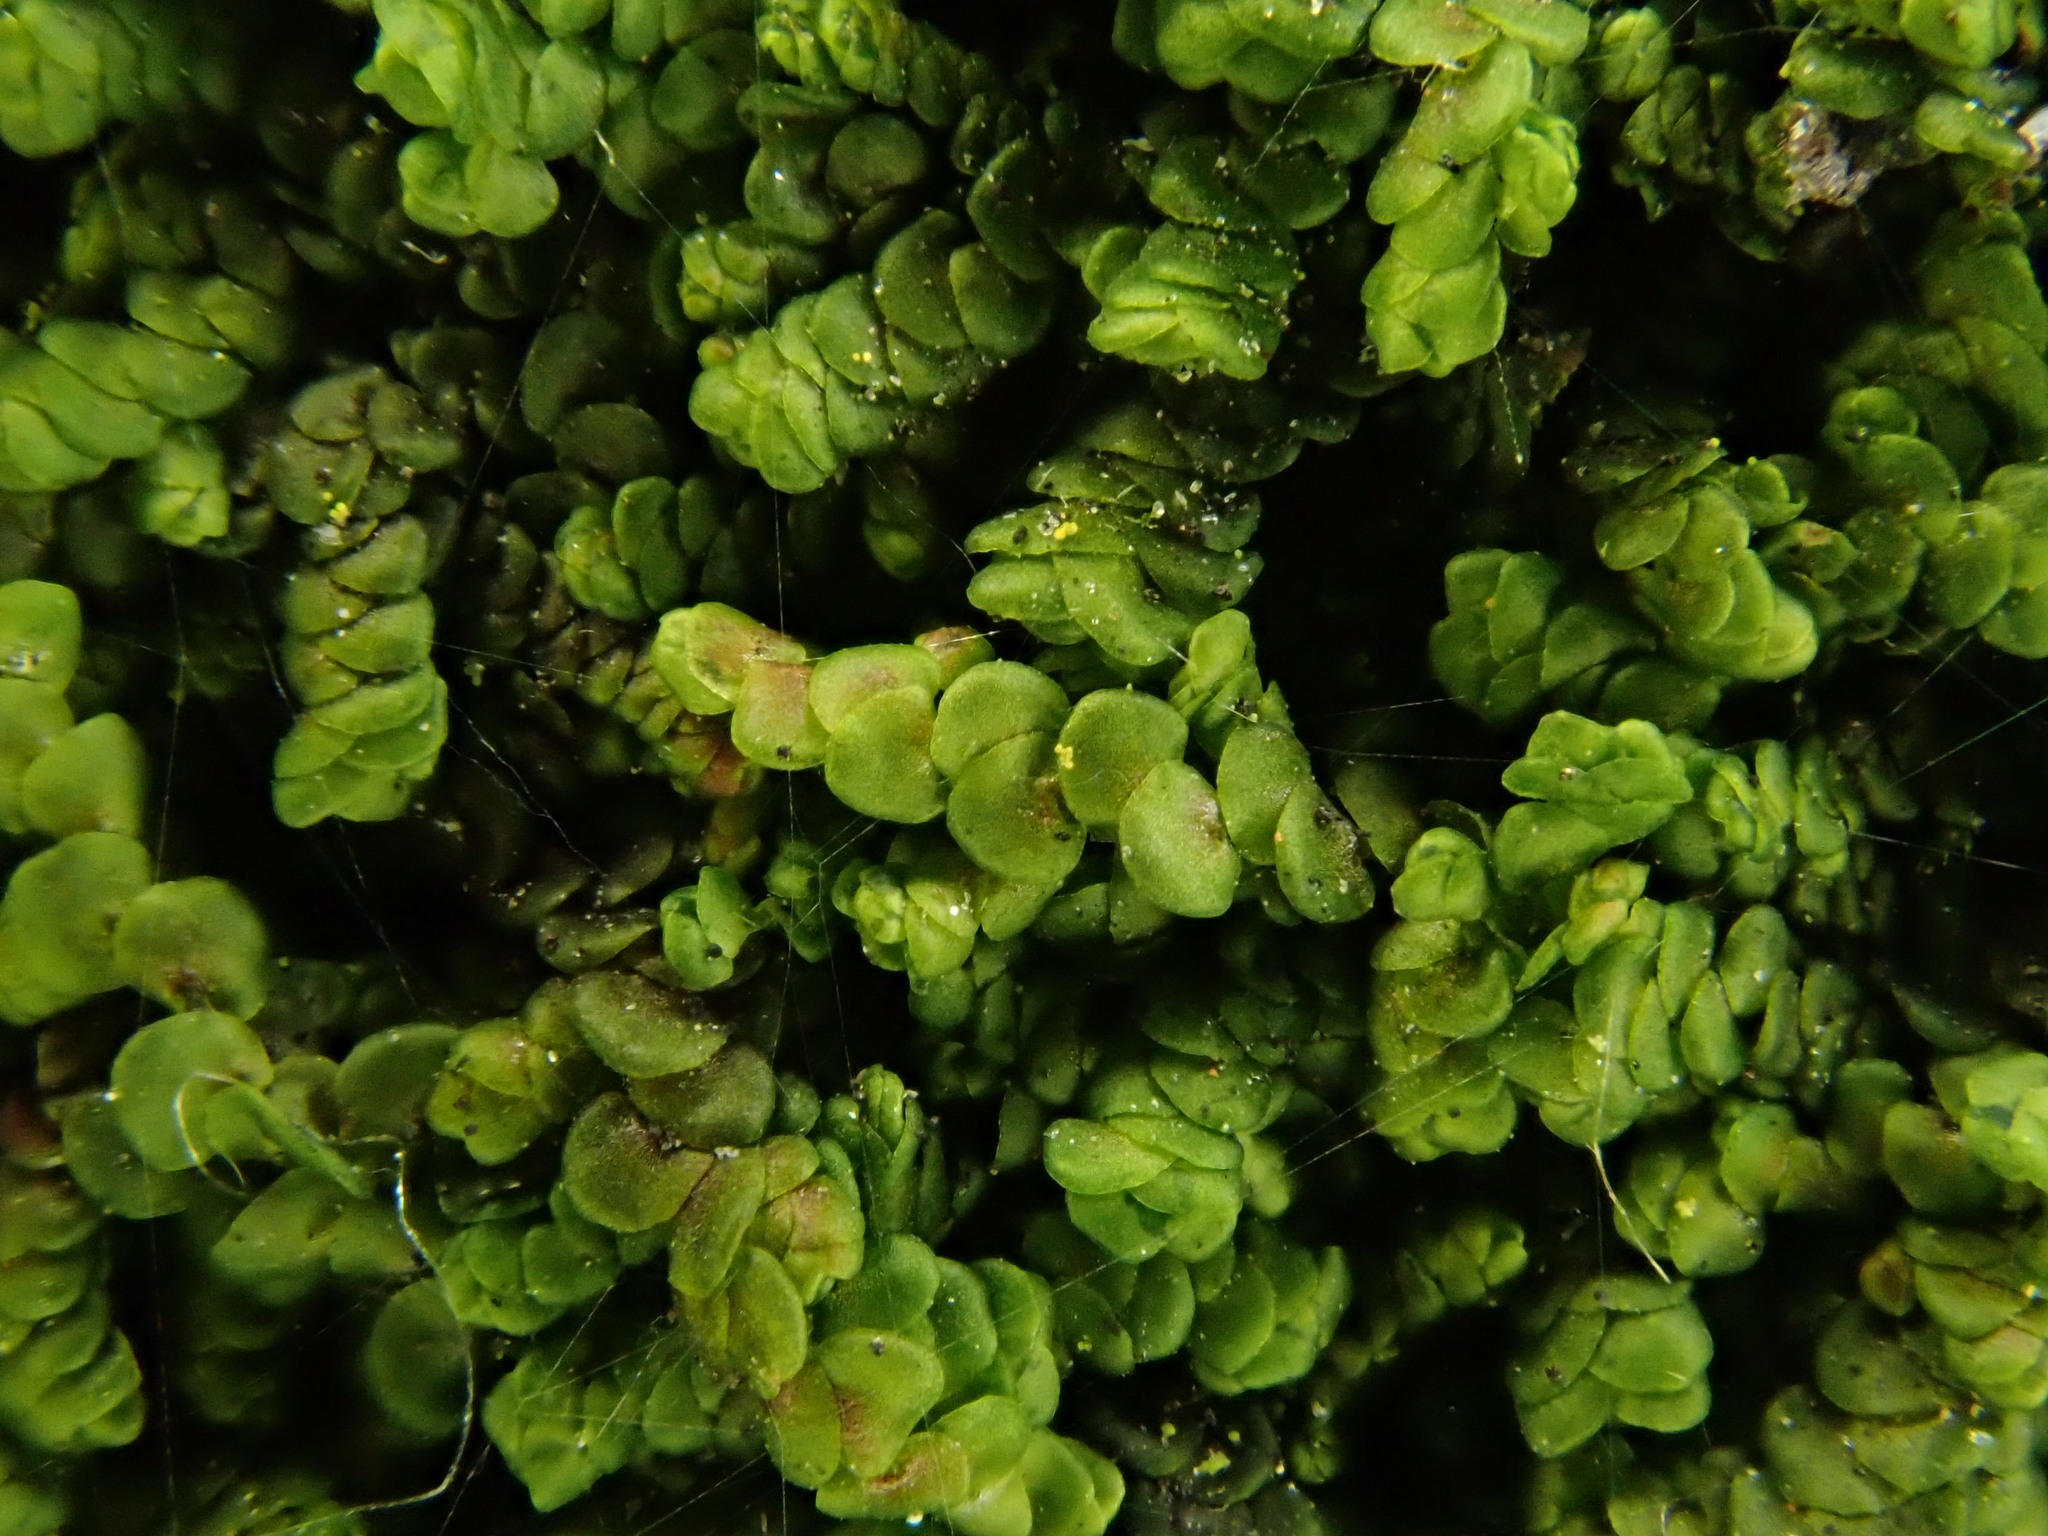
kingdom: Plantae
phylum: Marchantiophyta
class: Jungermanniopsida
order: Porellales
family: Frullaniaceae
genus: Frullania
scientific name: Frullania dilatata
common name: Dilated scalewort
